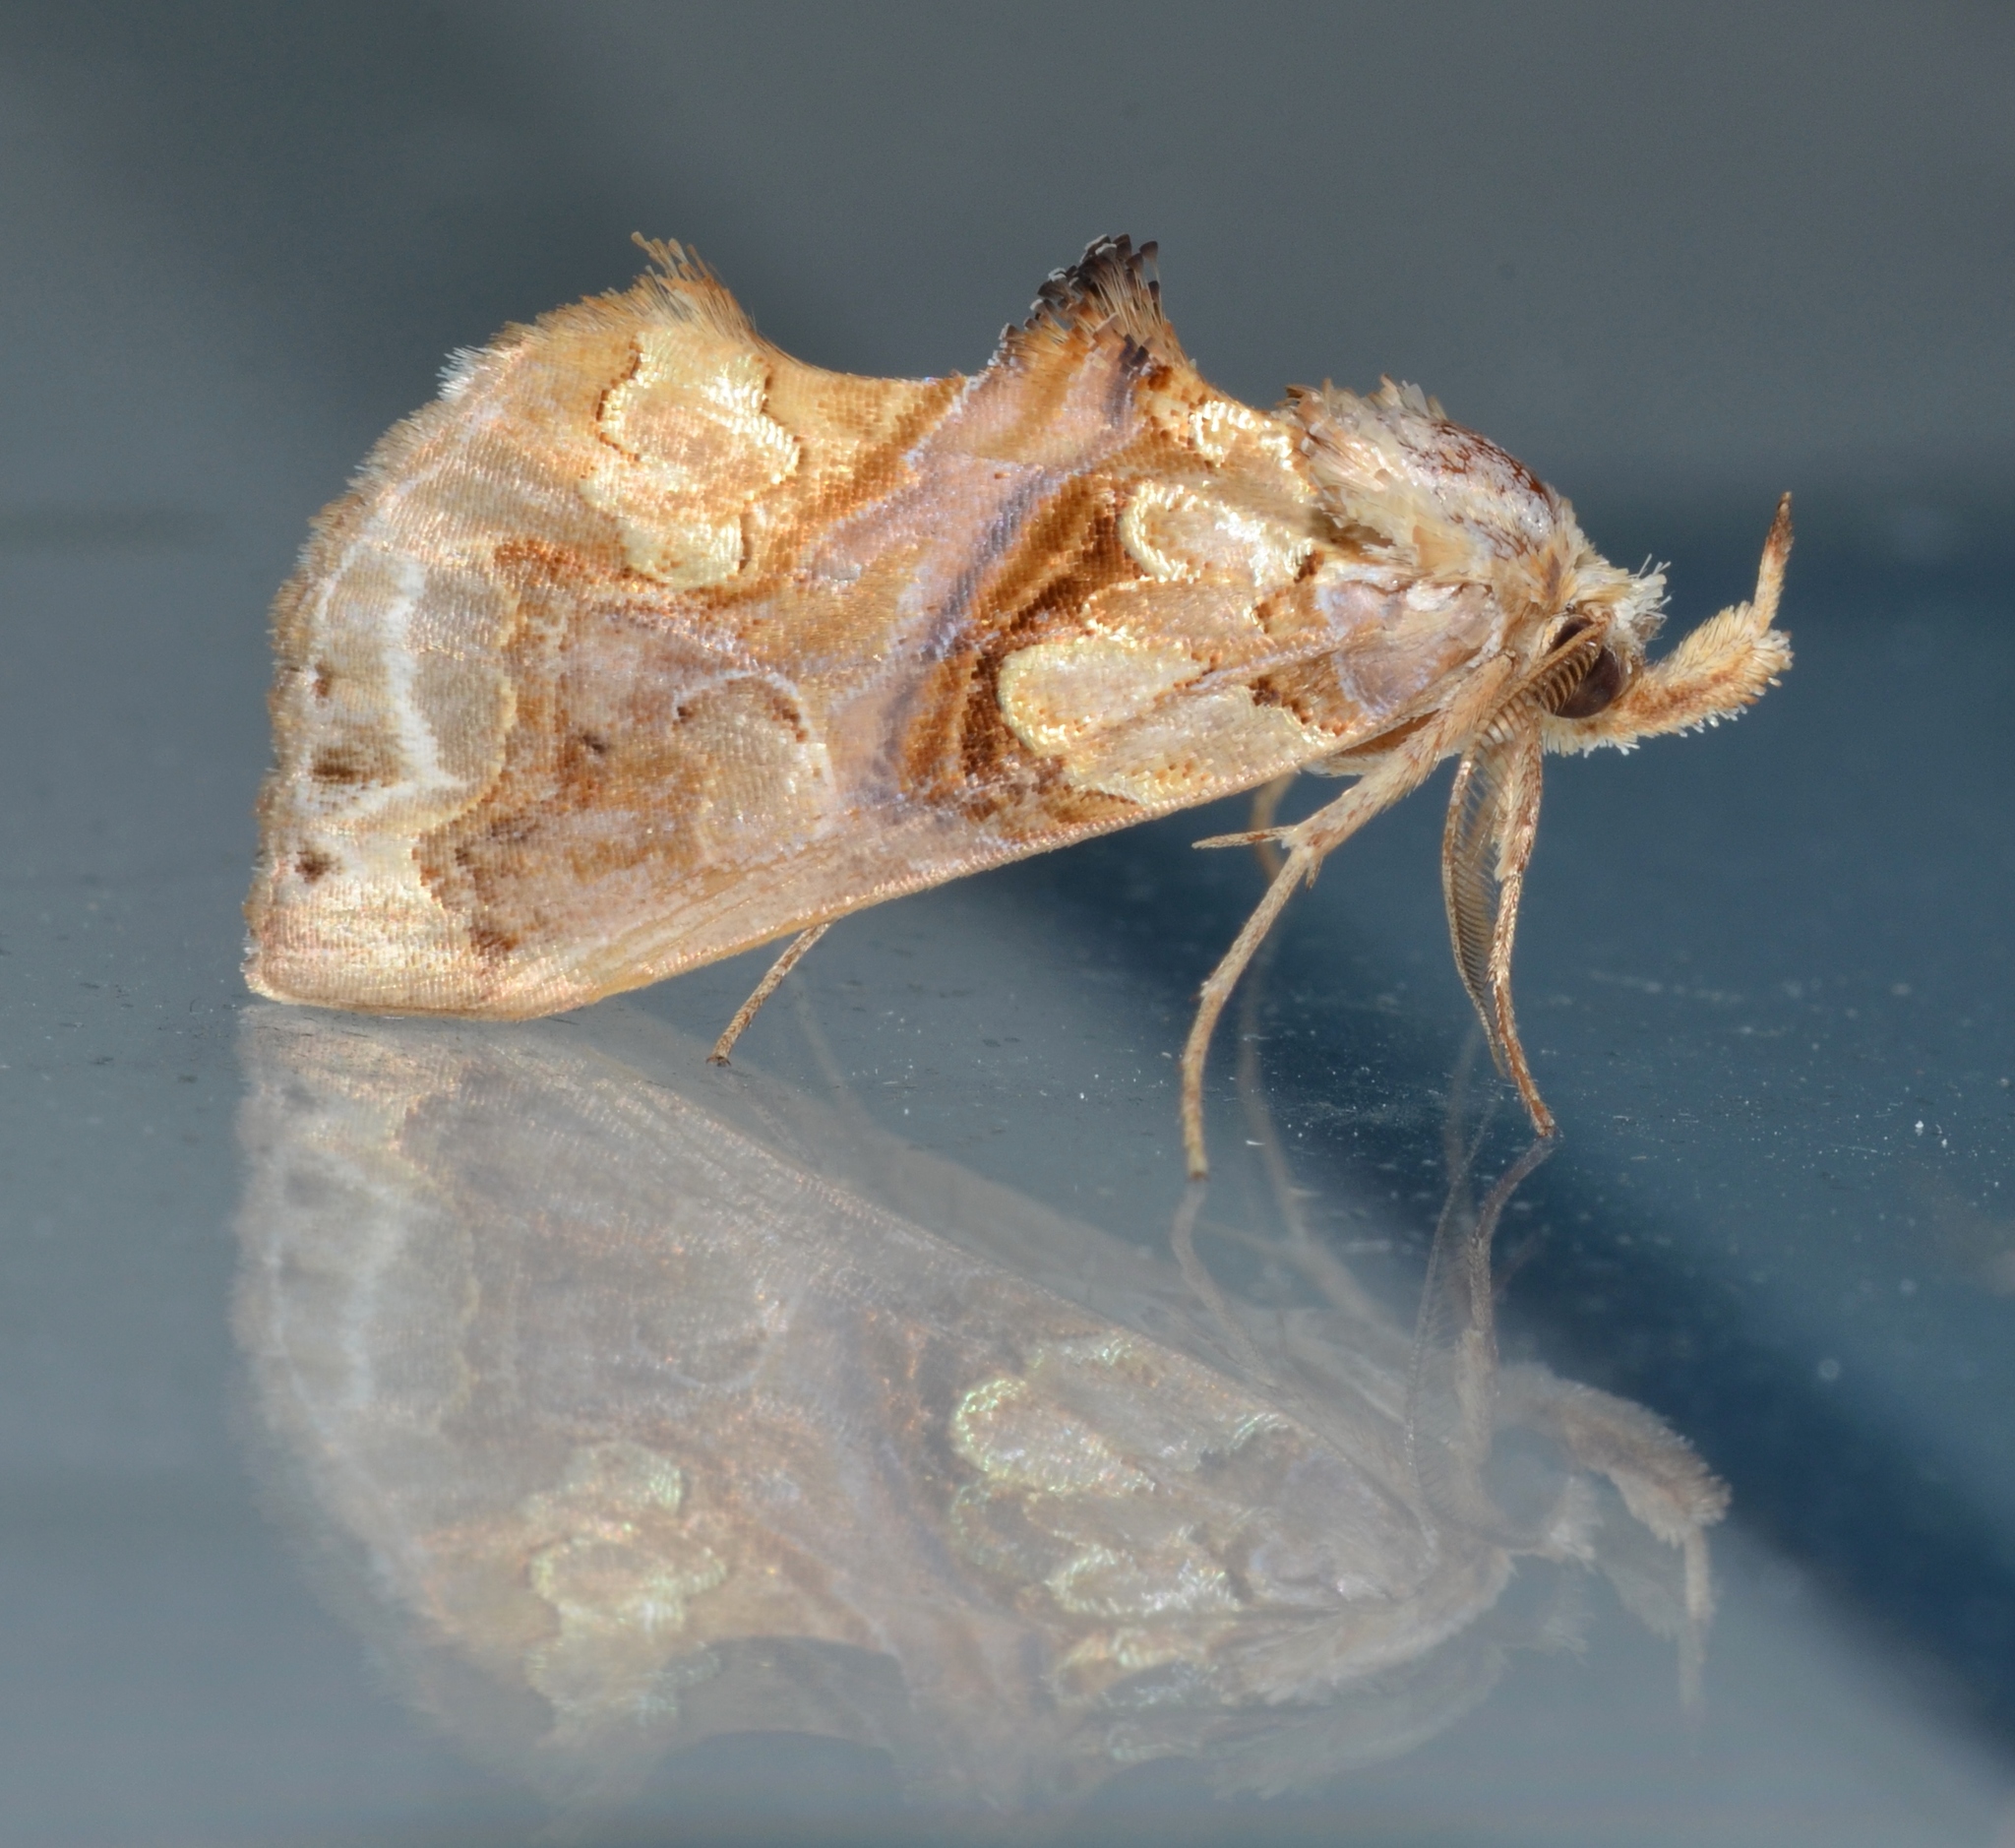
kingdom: Animalia
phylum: Arthropoda
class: Insecta
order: Lepidoptera
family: Erebidae
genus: Plusiodonta
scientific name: Plusiodonta compressipalpis
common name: Moonseed moth
